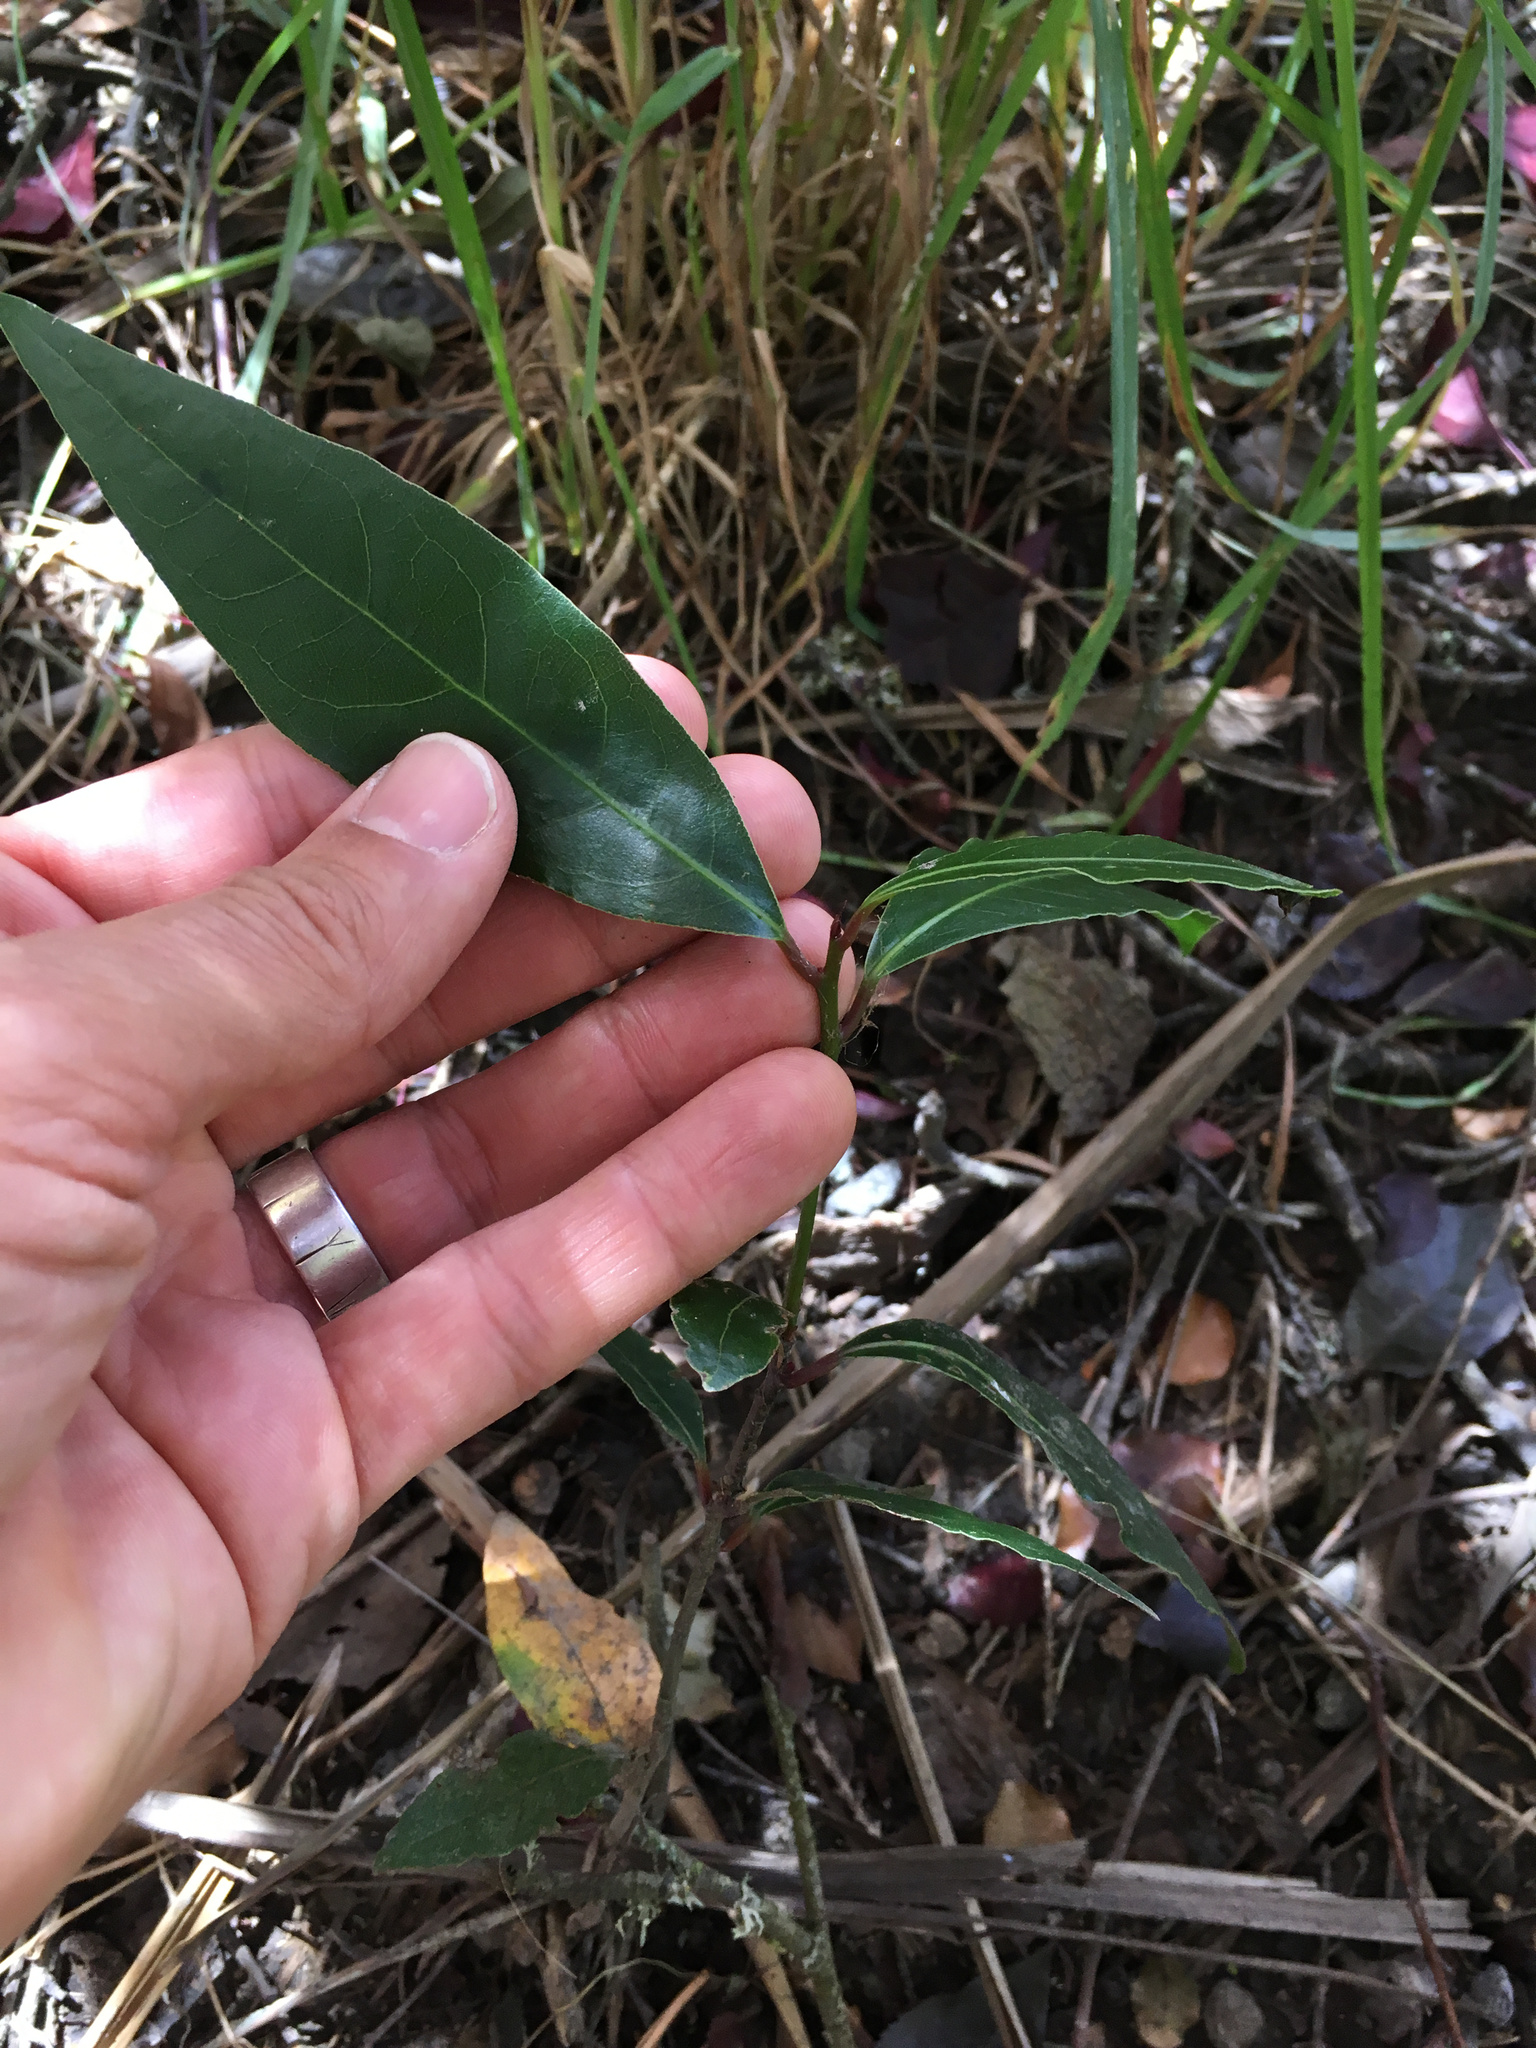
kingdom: Plantae
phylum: Tracheophyta
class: Magnoliopsida
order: Rosales
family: Rosaceae
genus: Prunus
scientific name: Prunus lusitanica
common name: Portugal laurel
